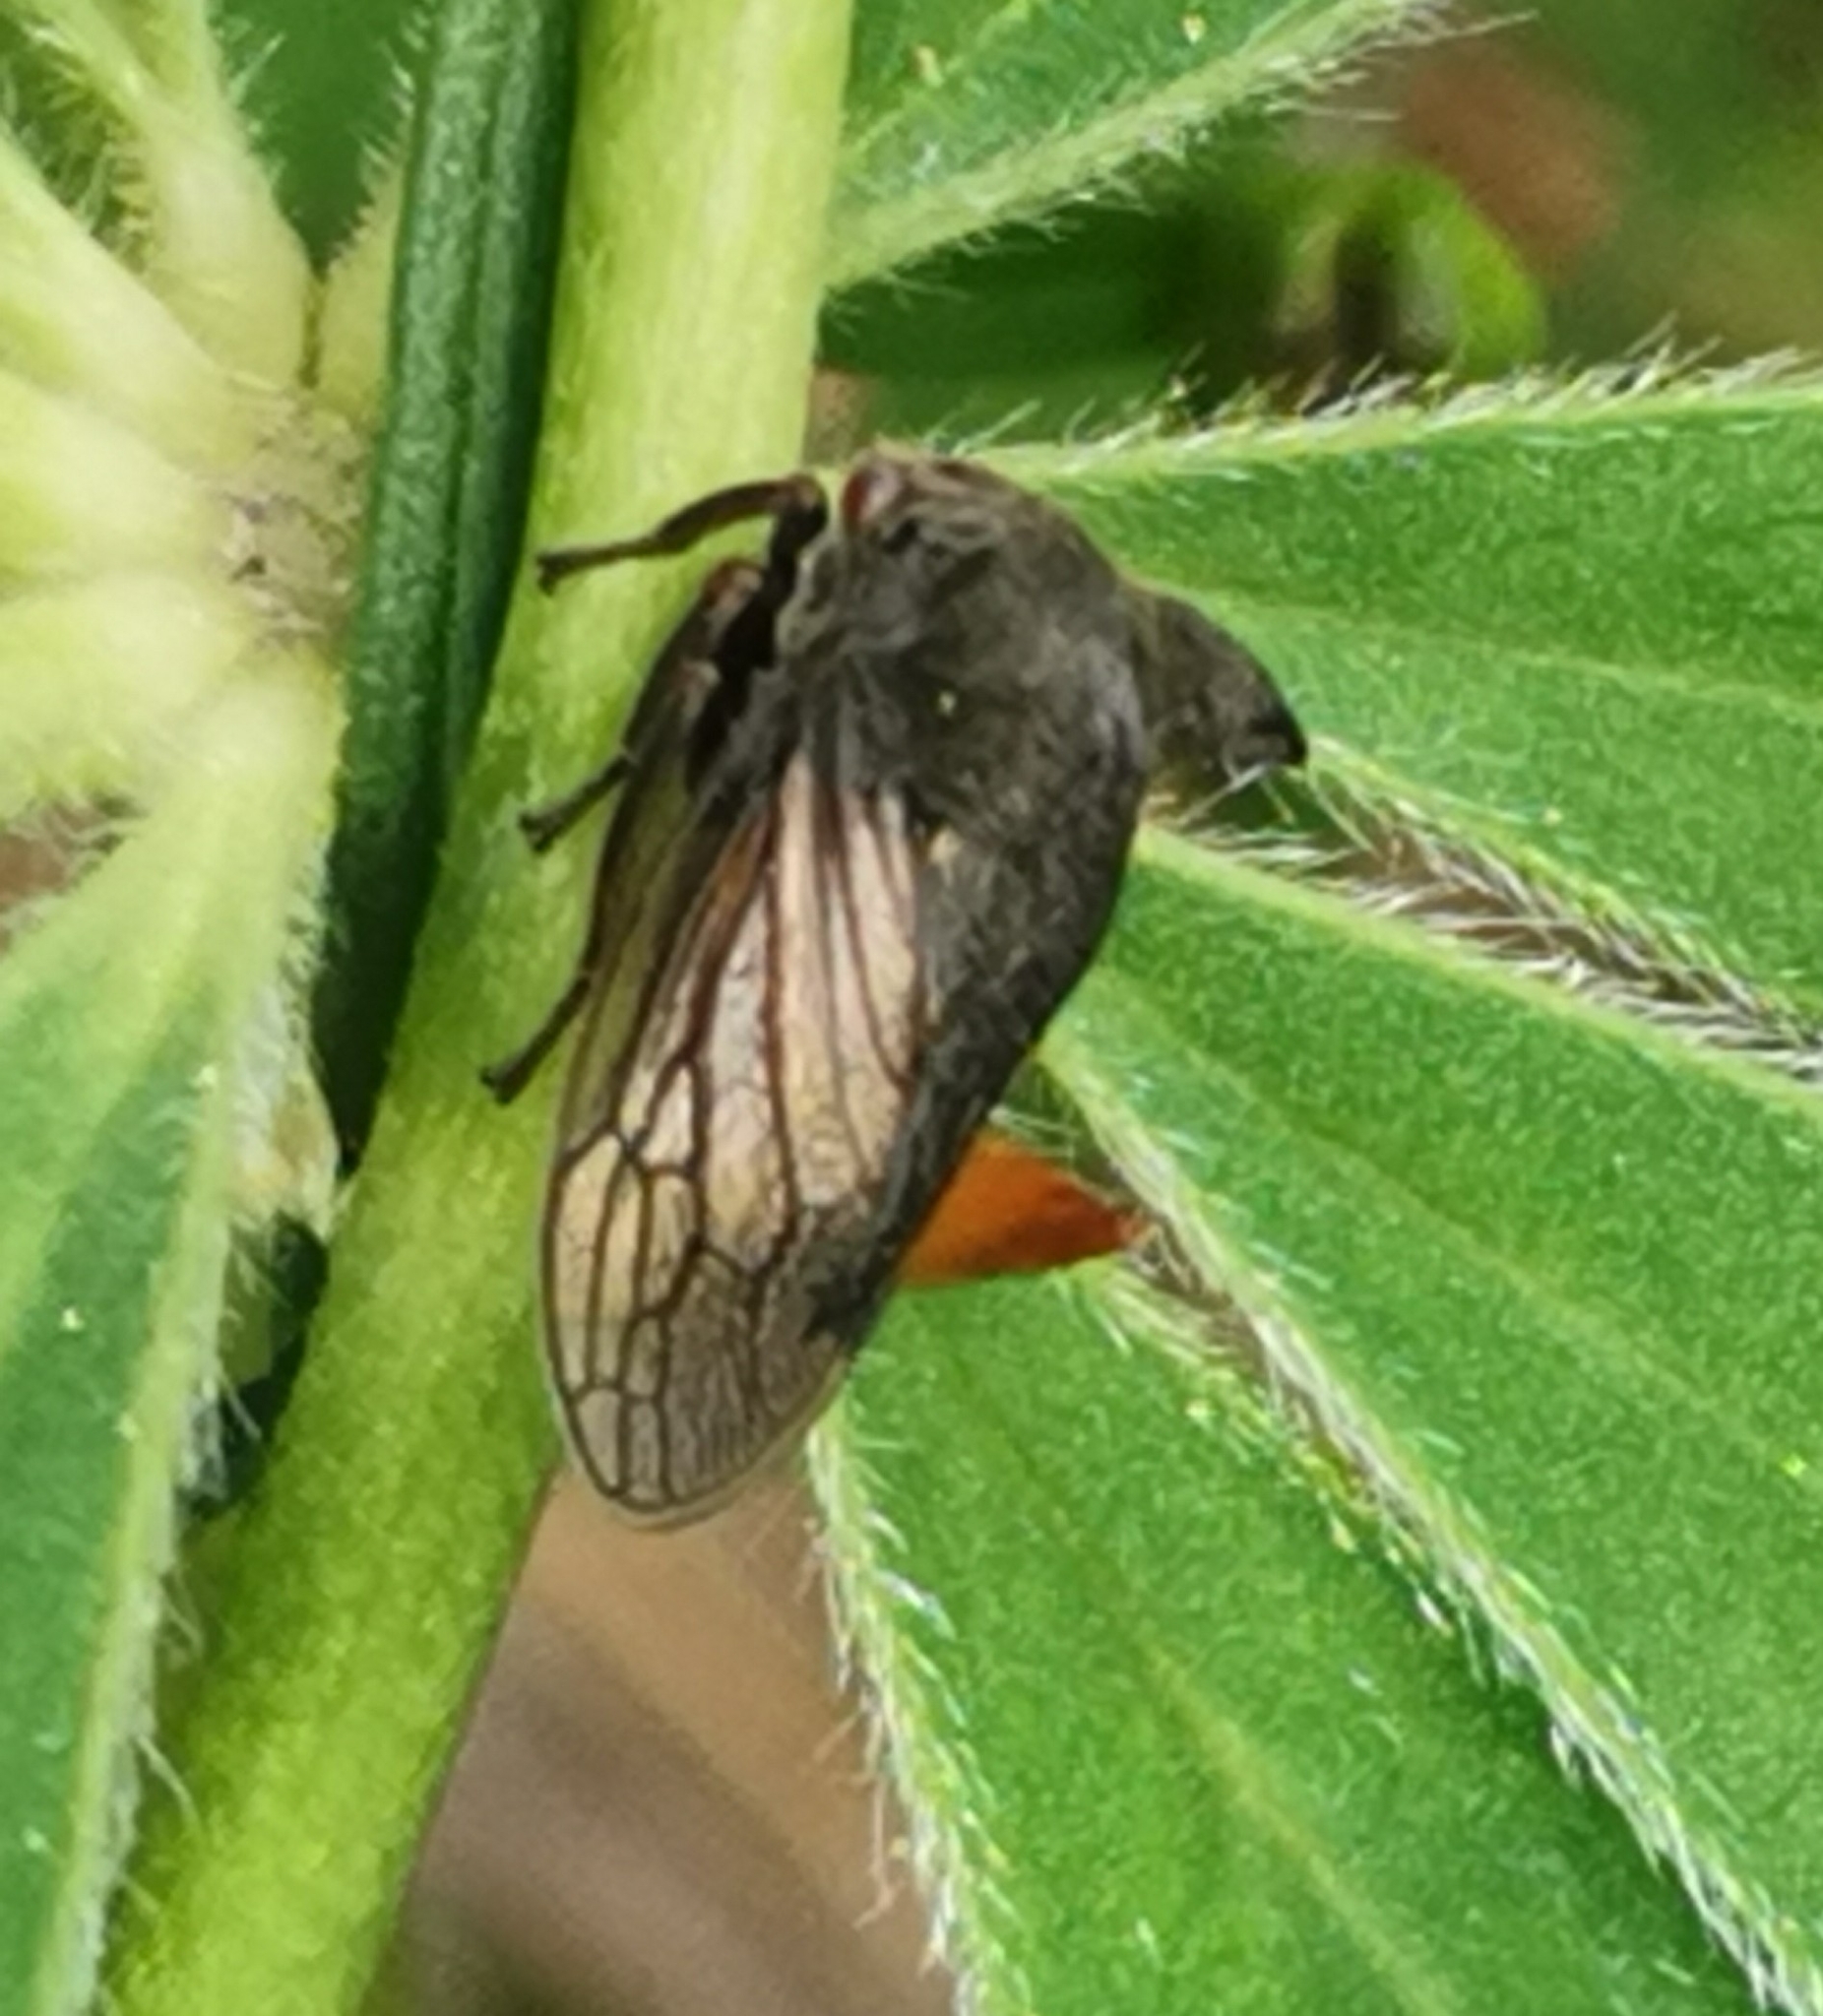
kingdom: Animalia
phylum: Arthropoda
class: Insecta
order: Hemiptera
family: Membracidae
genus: Centrotus
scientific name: Centrotus cornuta
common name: Treehopper
